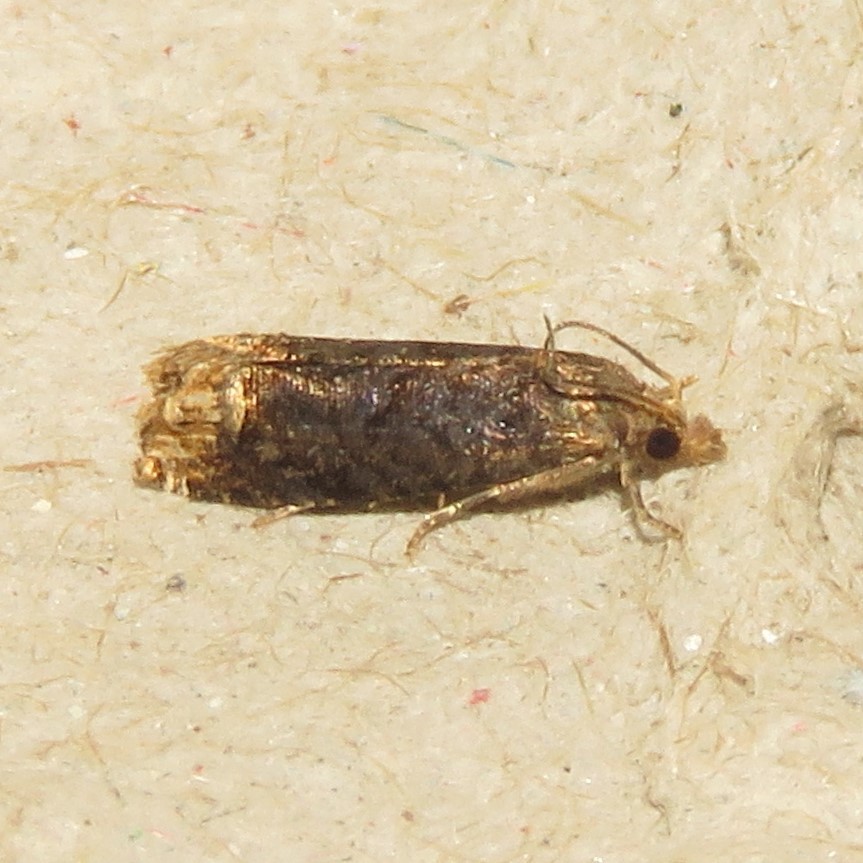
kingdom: Animalia
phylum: Arthropoda
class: Insecta
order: Lepidoptera
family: Tortricidae
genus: Eucosma
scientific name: Eucosma ochroterminana
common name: Buff-tipped eucosma moth
